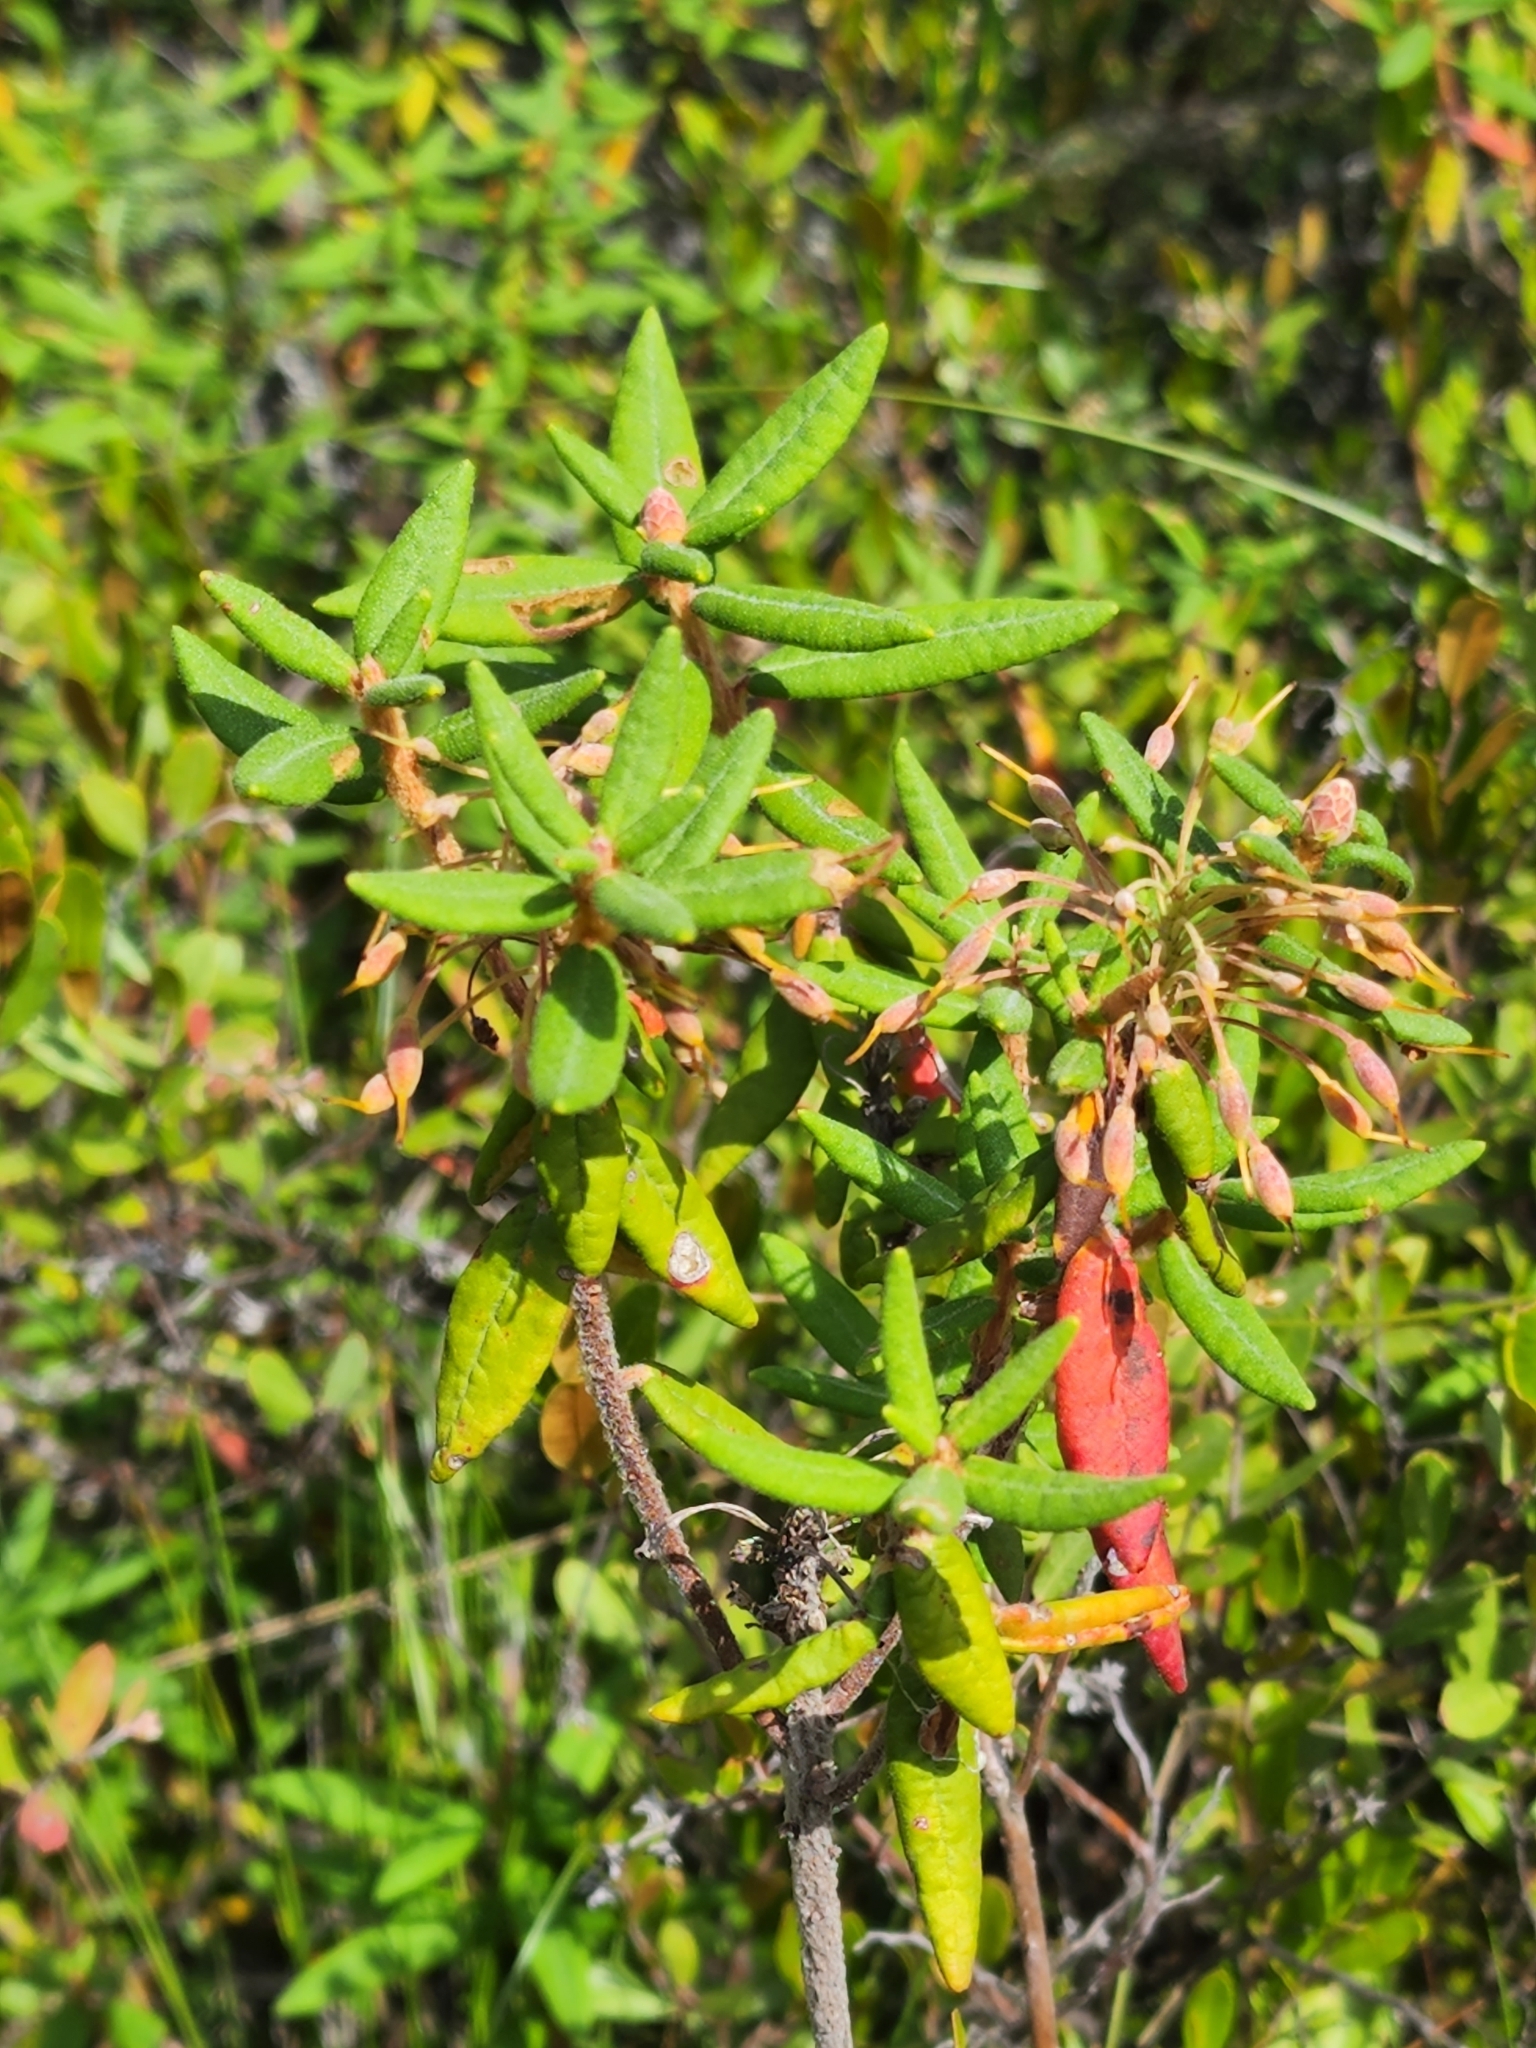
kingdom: Plantae
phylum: Tracheophyta
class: Magnoliopsida
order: Ericales
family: Ericaceae
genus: Rhododendron
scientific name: Rhododendron groenlandicum
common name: Bog labrador tea
